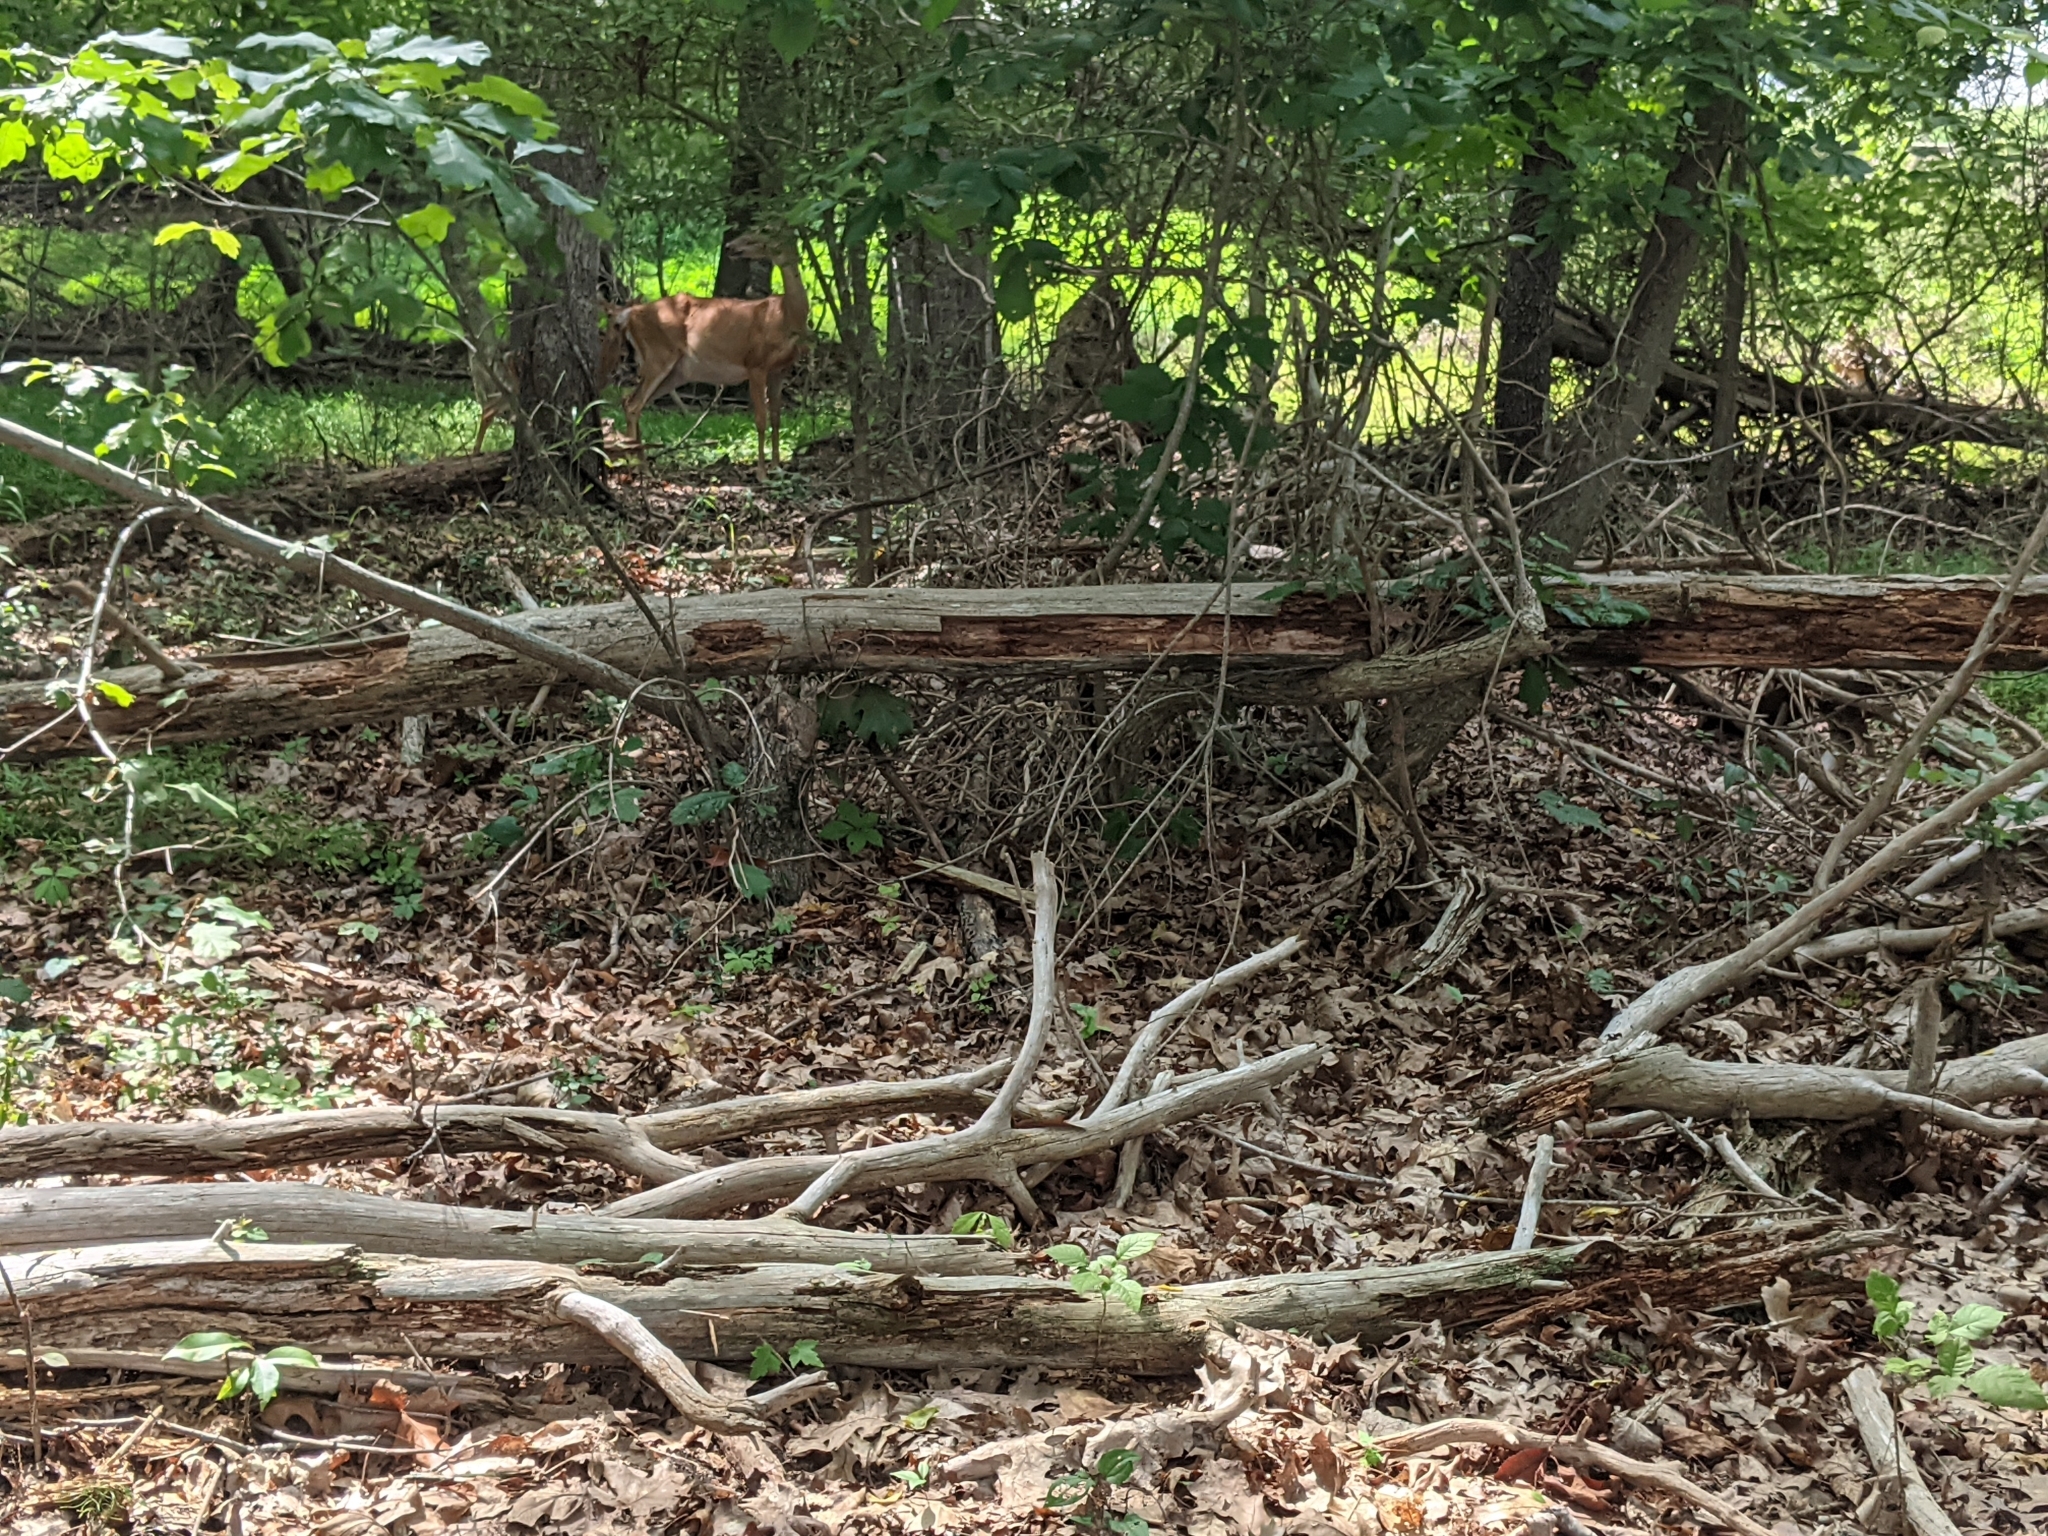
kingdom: Animalia
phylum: Chordata
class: Mammalia
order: Artiodactyla
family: Cervidae
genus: Odocoileus
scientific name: Odocoileus virginianus
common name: White-tailed deer
